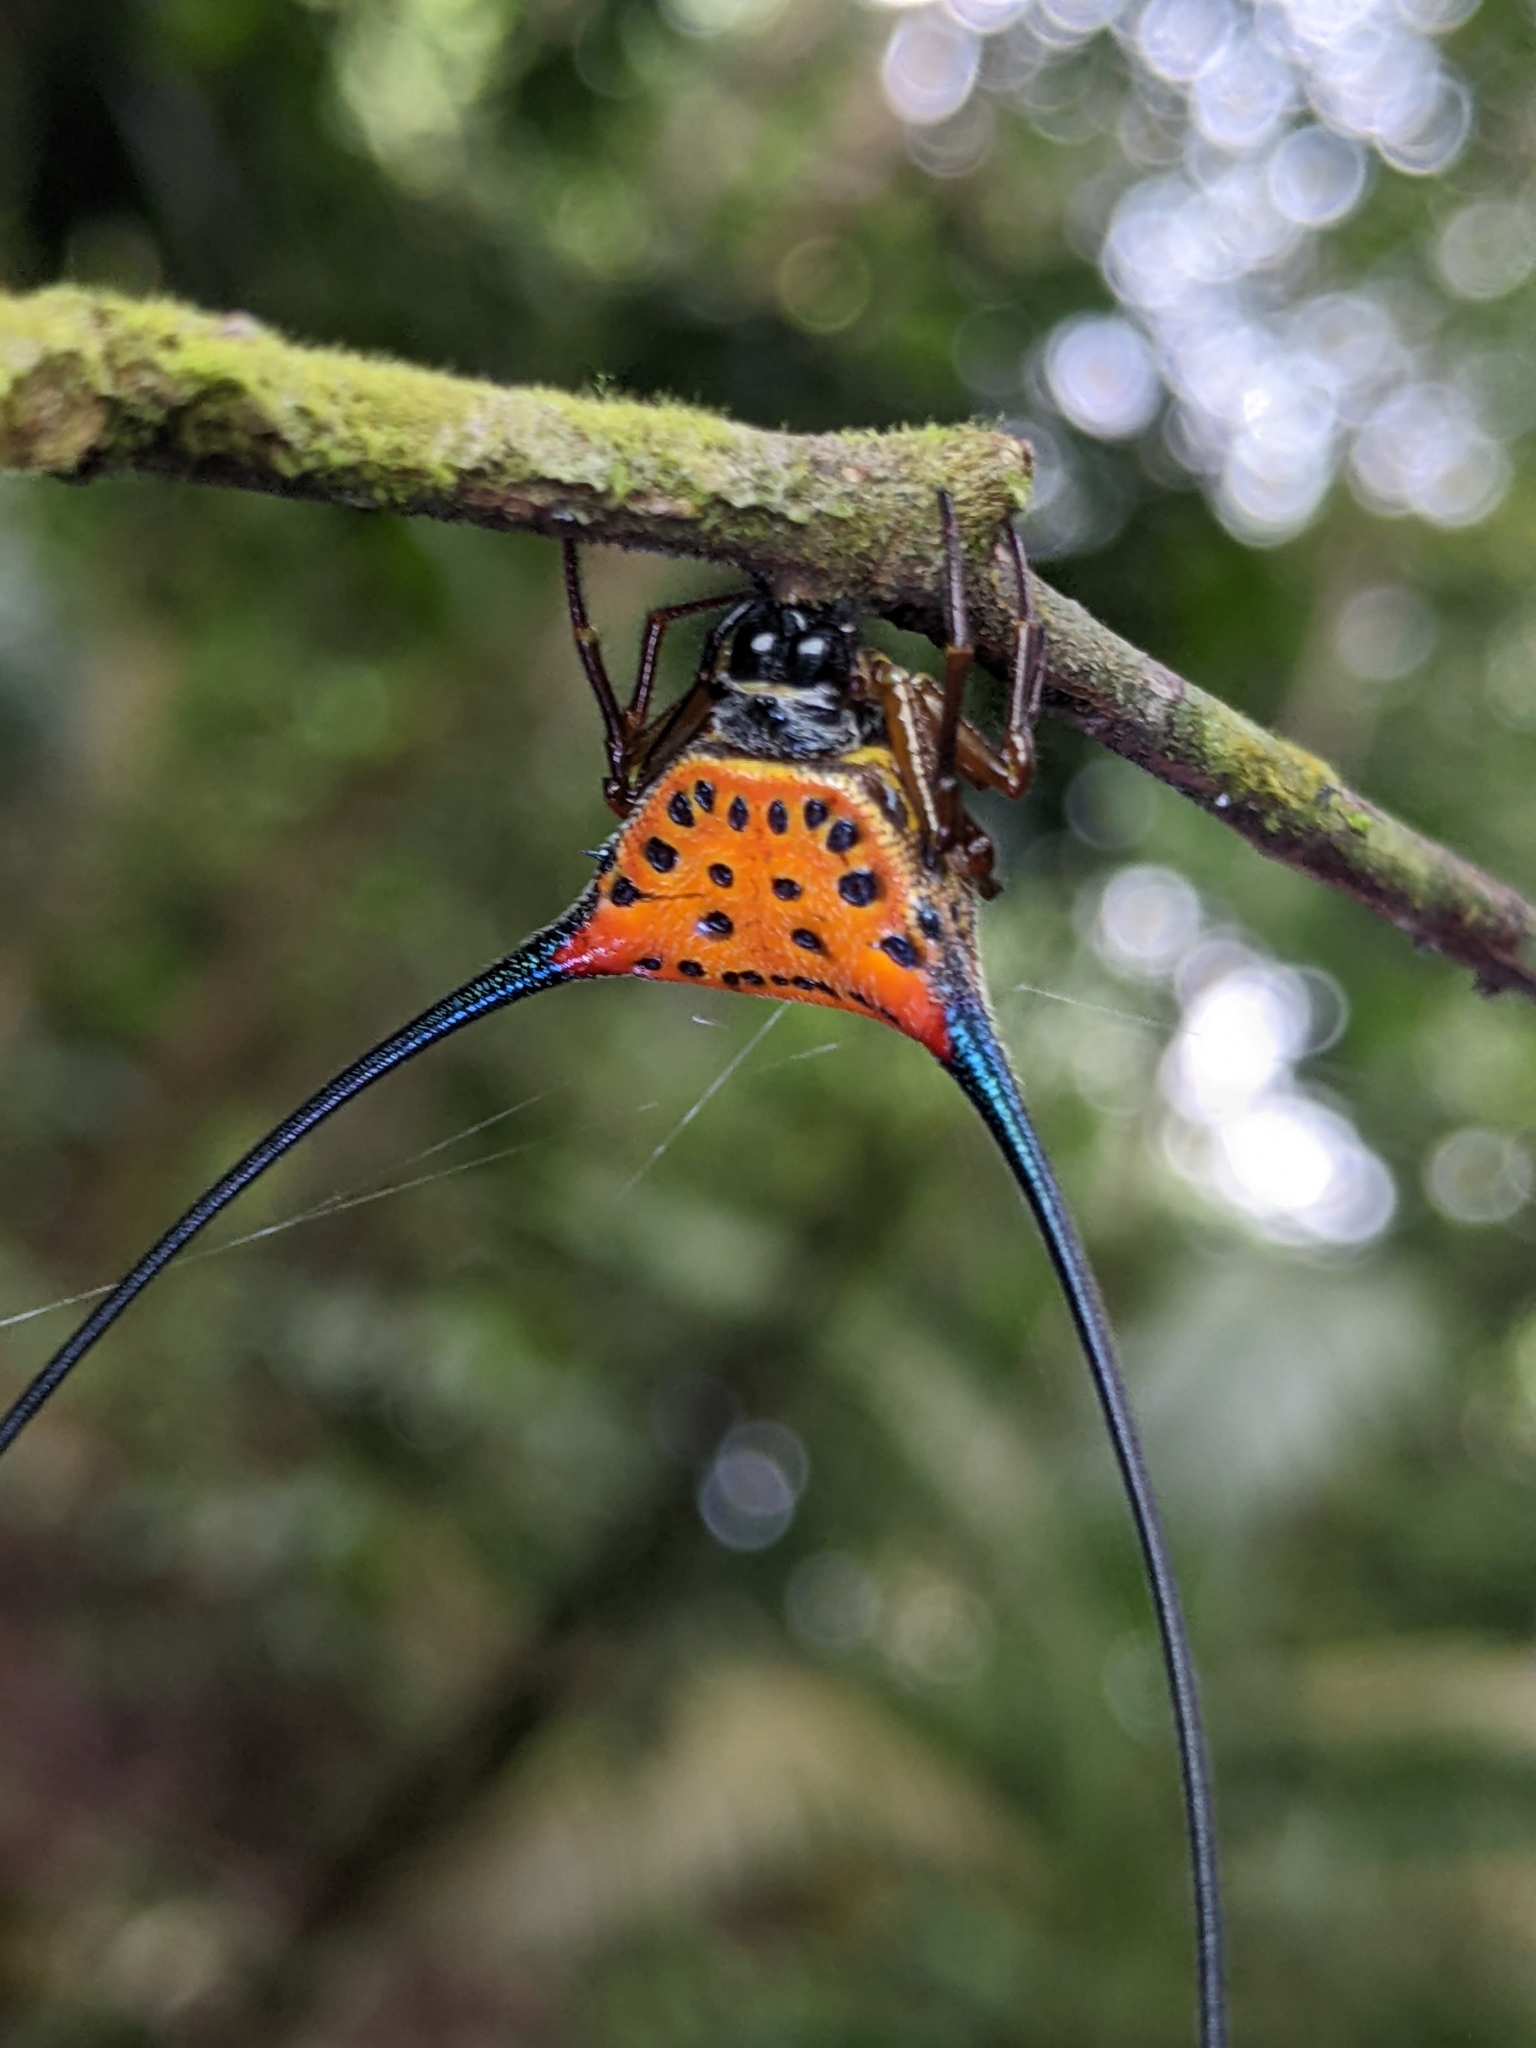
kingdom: Animalia
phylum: Arthropoda
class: Arachnida
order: Araneae
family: Araneidae
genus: Macracantha
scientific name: Macracantha arcuata
